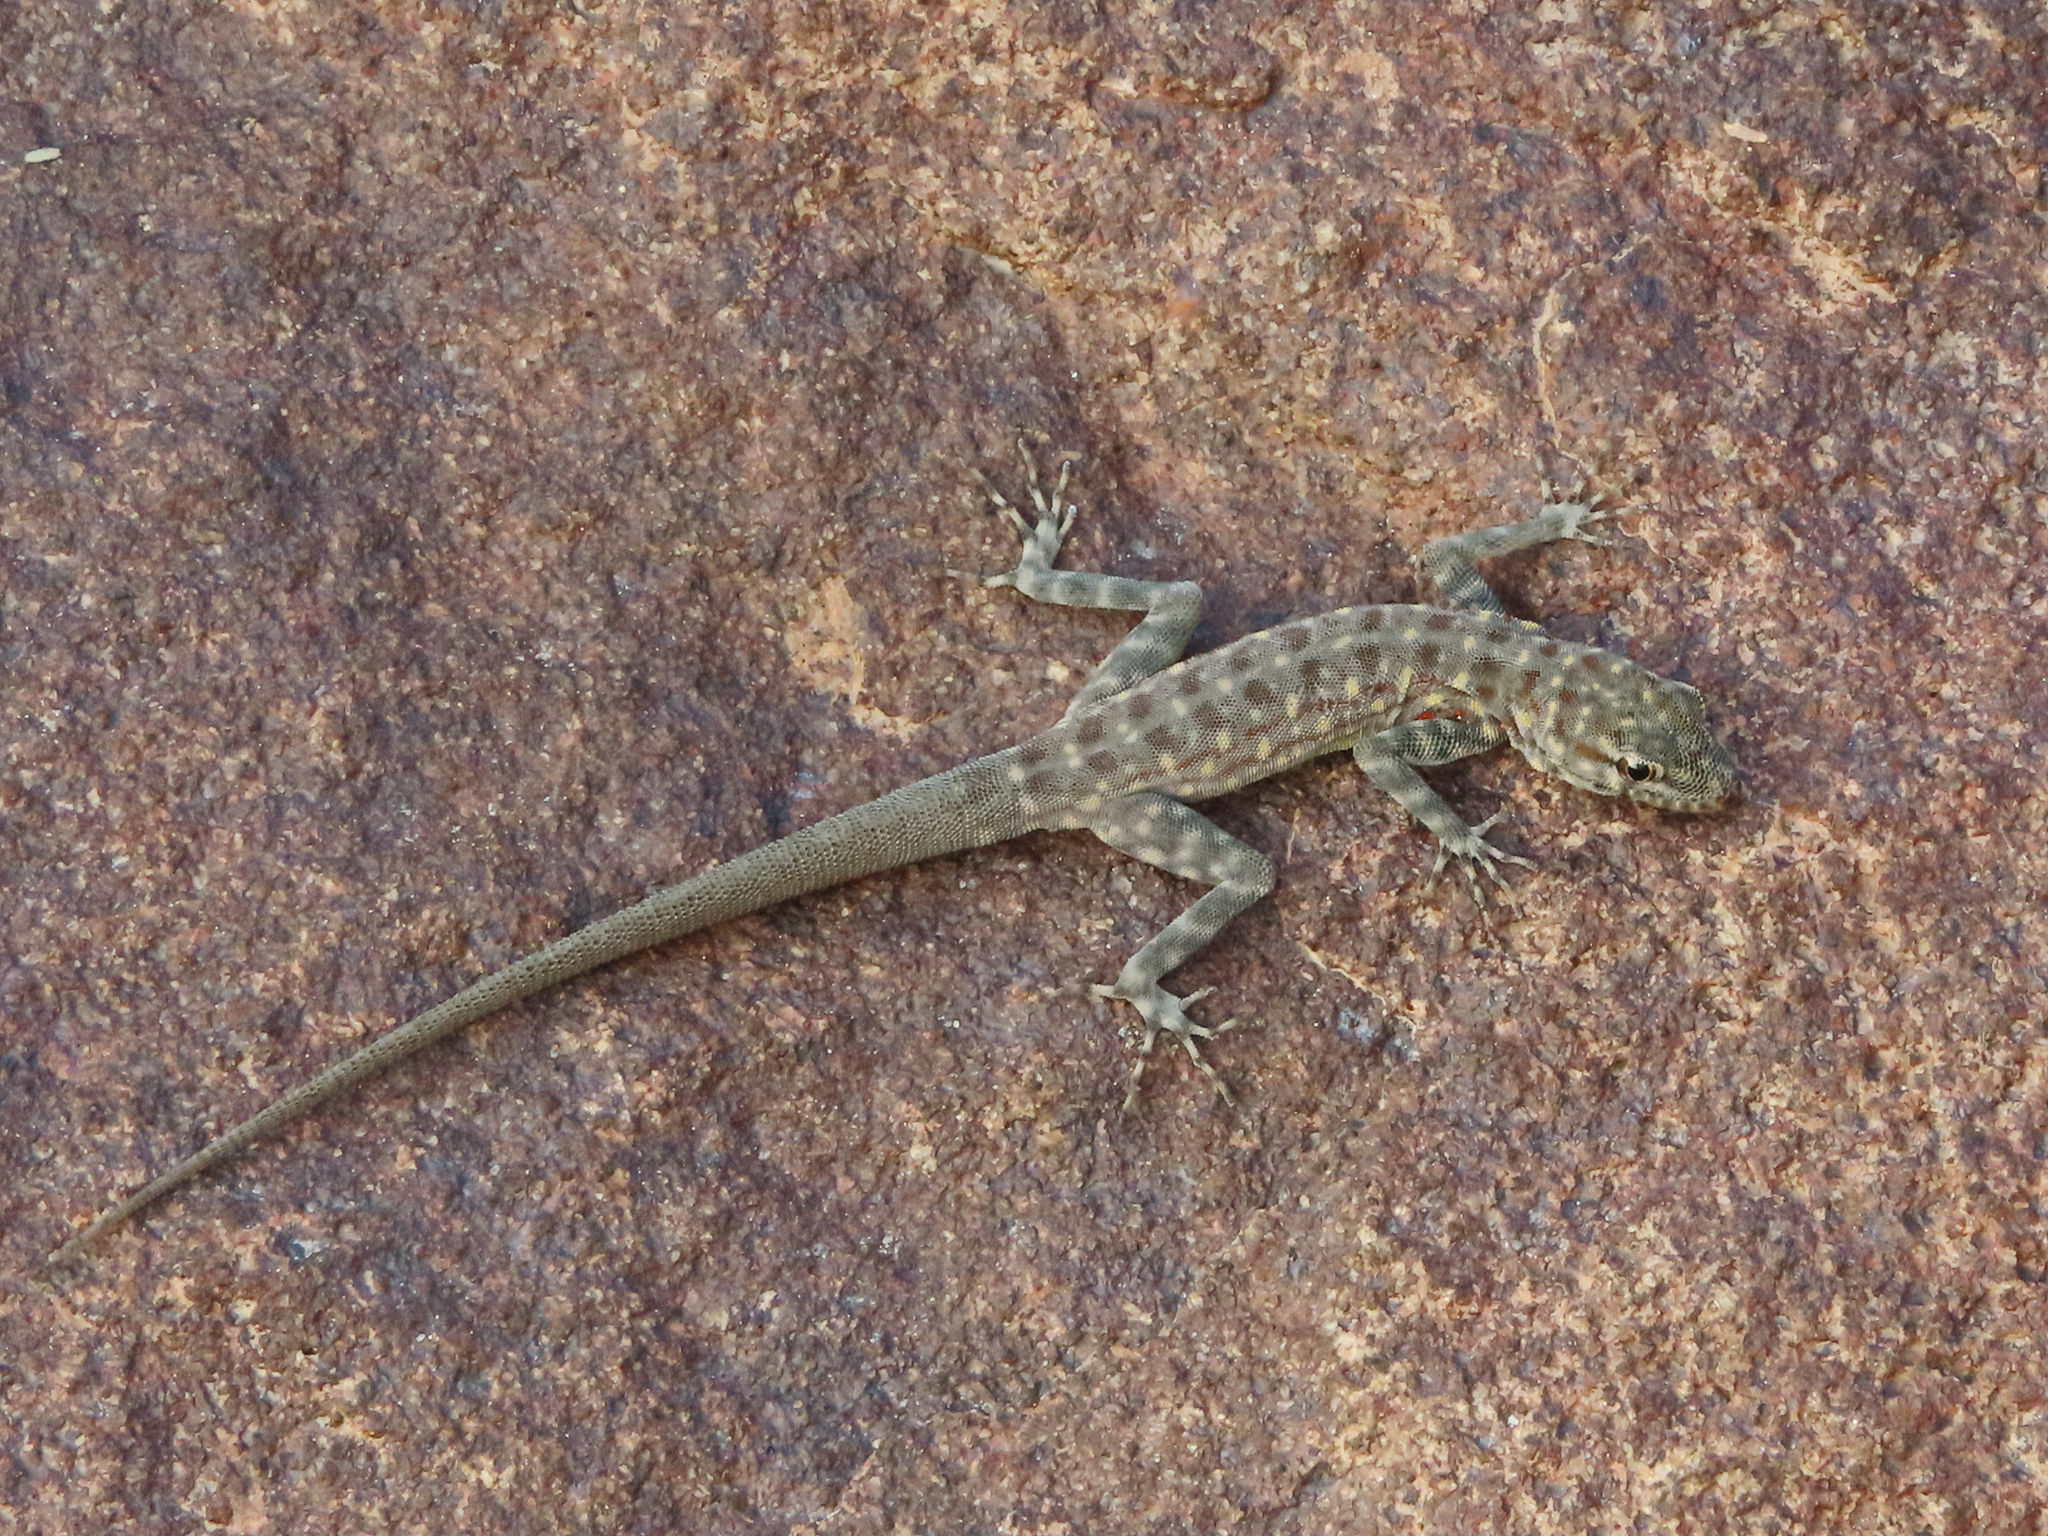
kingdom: Animalia
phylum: Chordata
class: Squamata
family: Sphaerodactylidae
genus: Pristurus
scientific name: Pristurus celerrimus
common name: Bar-tailed semaphore gecko
